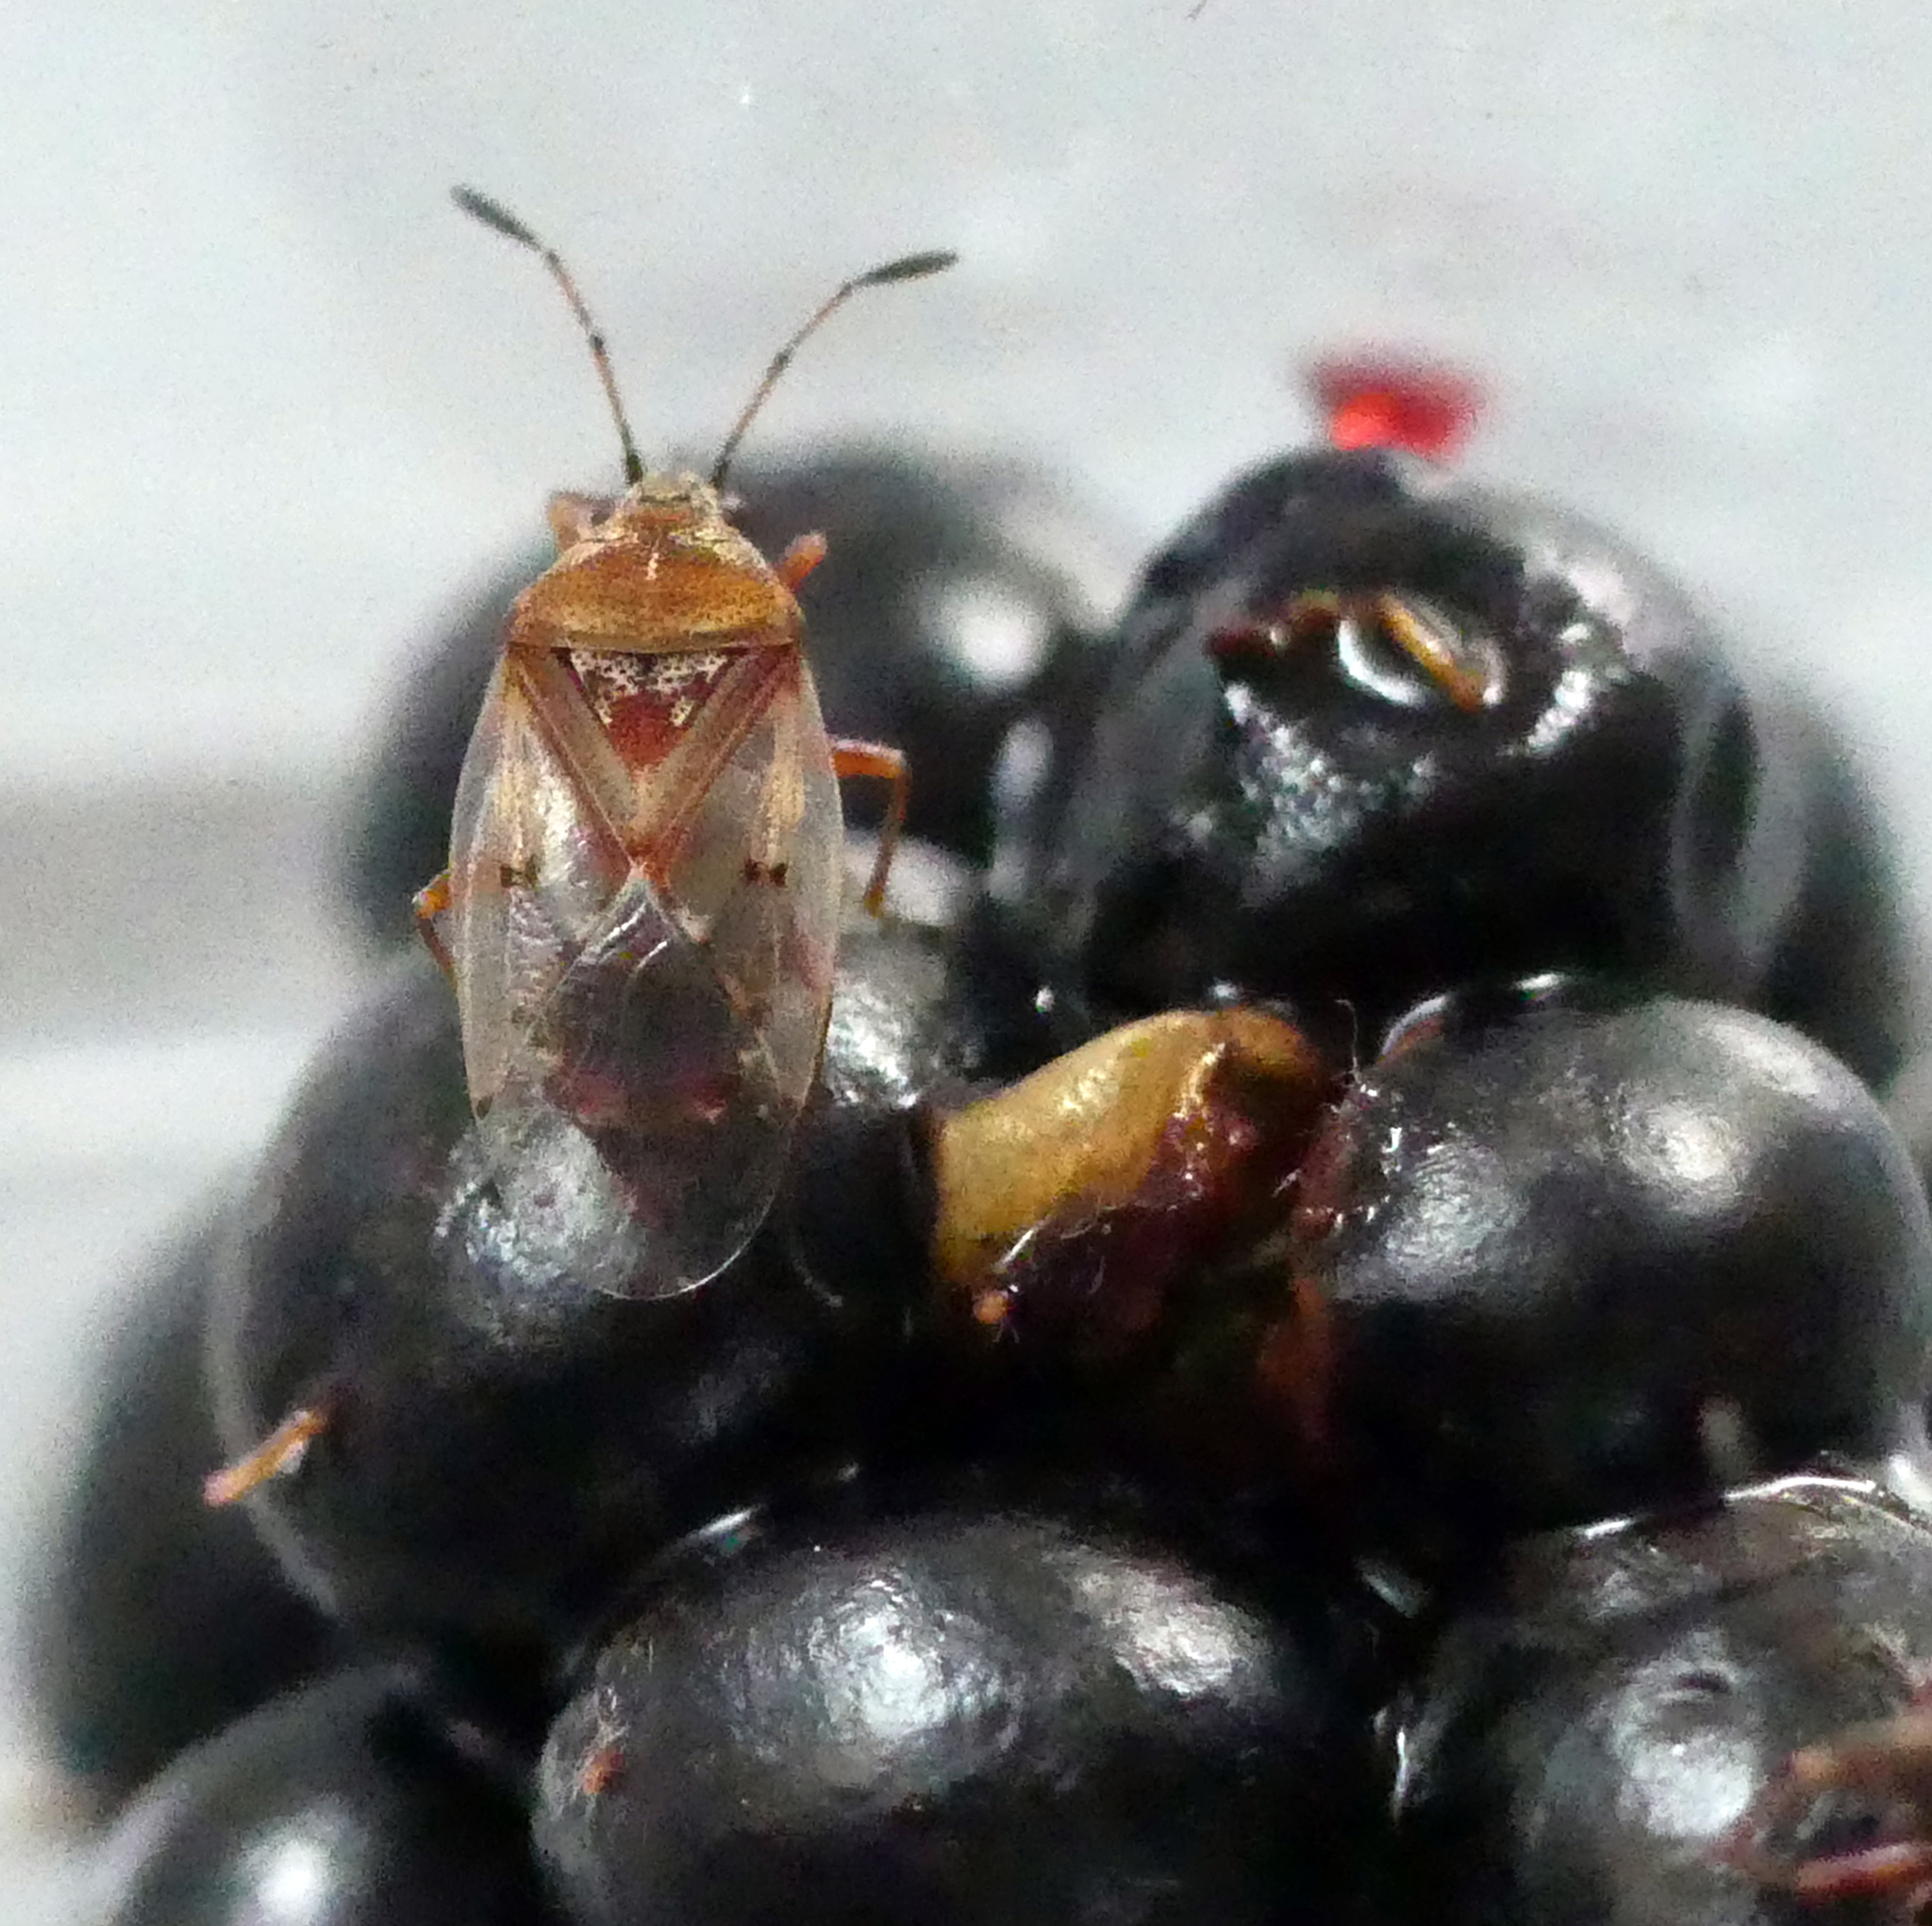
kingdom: Animalia
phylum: Arthropoda
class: Insecta
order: Hemiptera
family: Lygaeidae
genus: Kleidocerys
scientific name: Kleidocerys resedae
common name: Birch catkin bug
